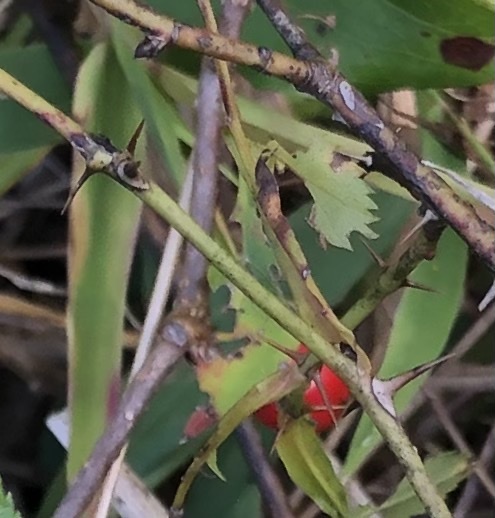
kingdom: Plantae
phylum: Tracheophyta
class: Magnoliopsida
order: Rosales
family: Rosaceae
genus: Rosa
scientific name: Rosa carolina
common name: Pasture rose
